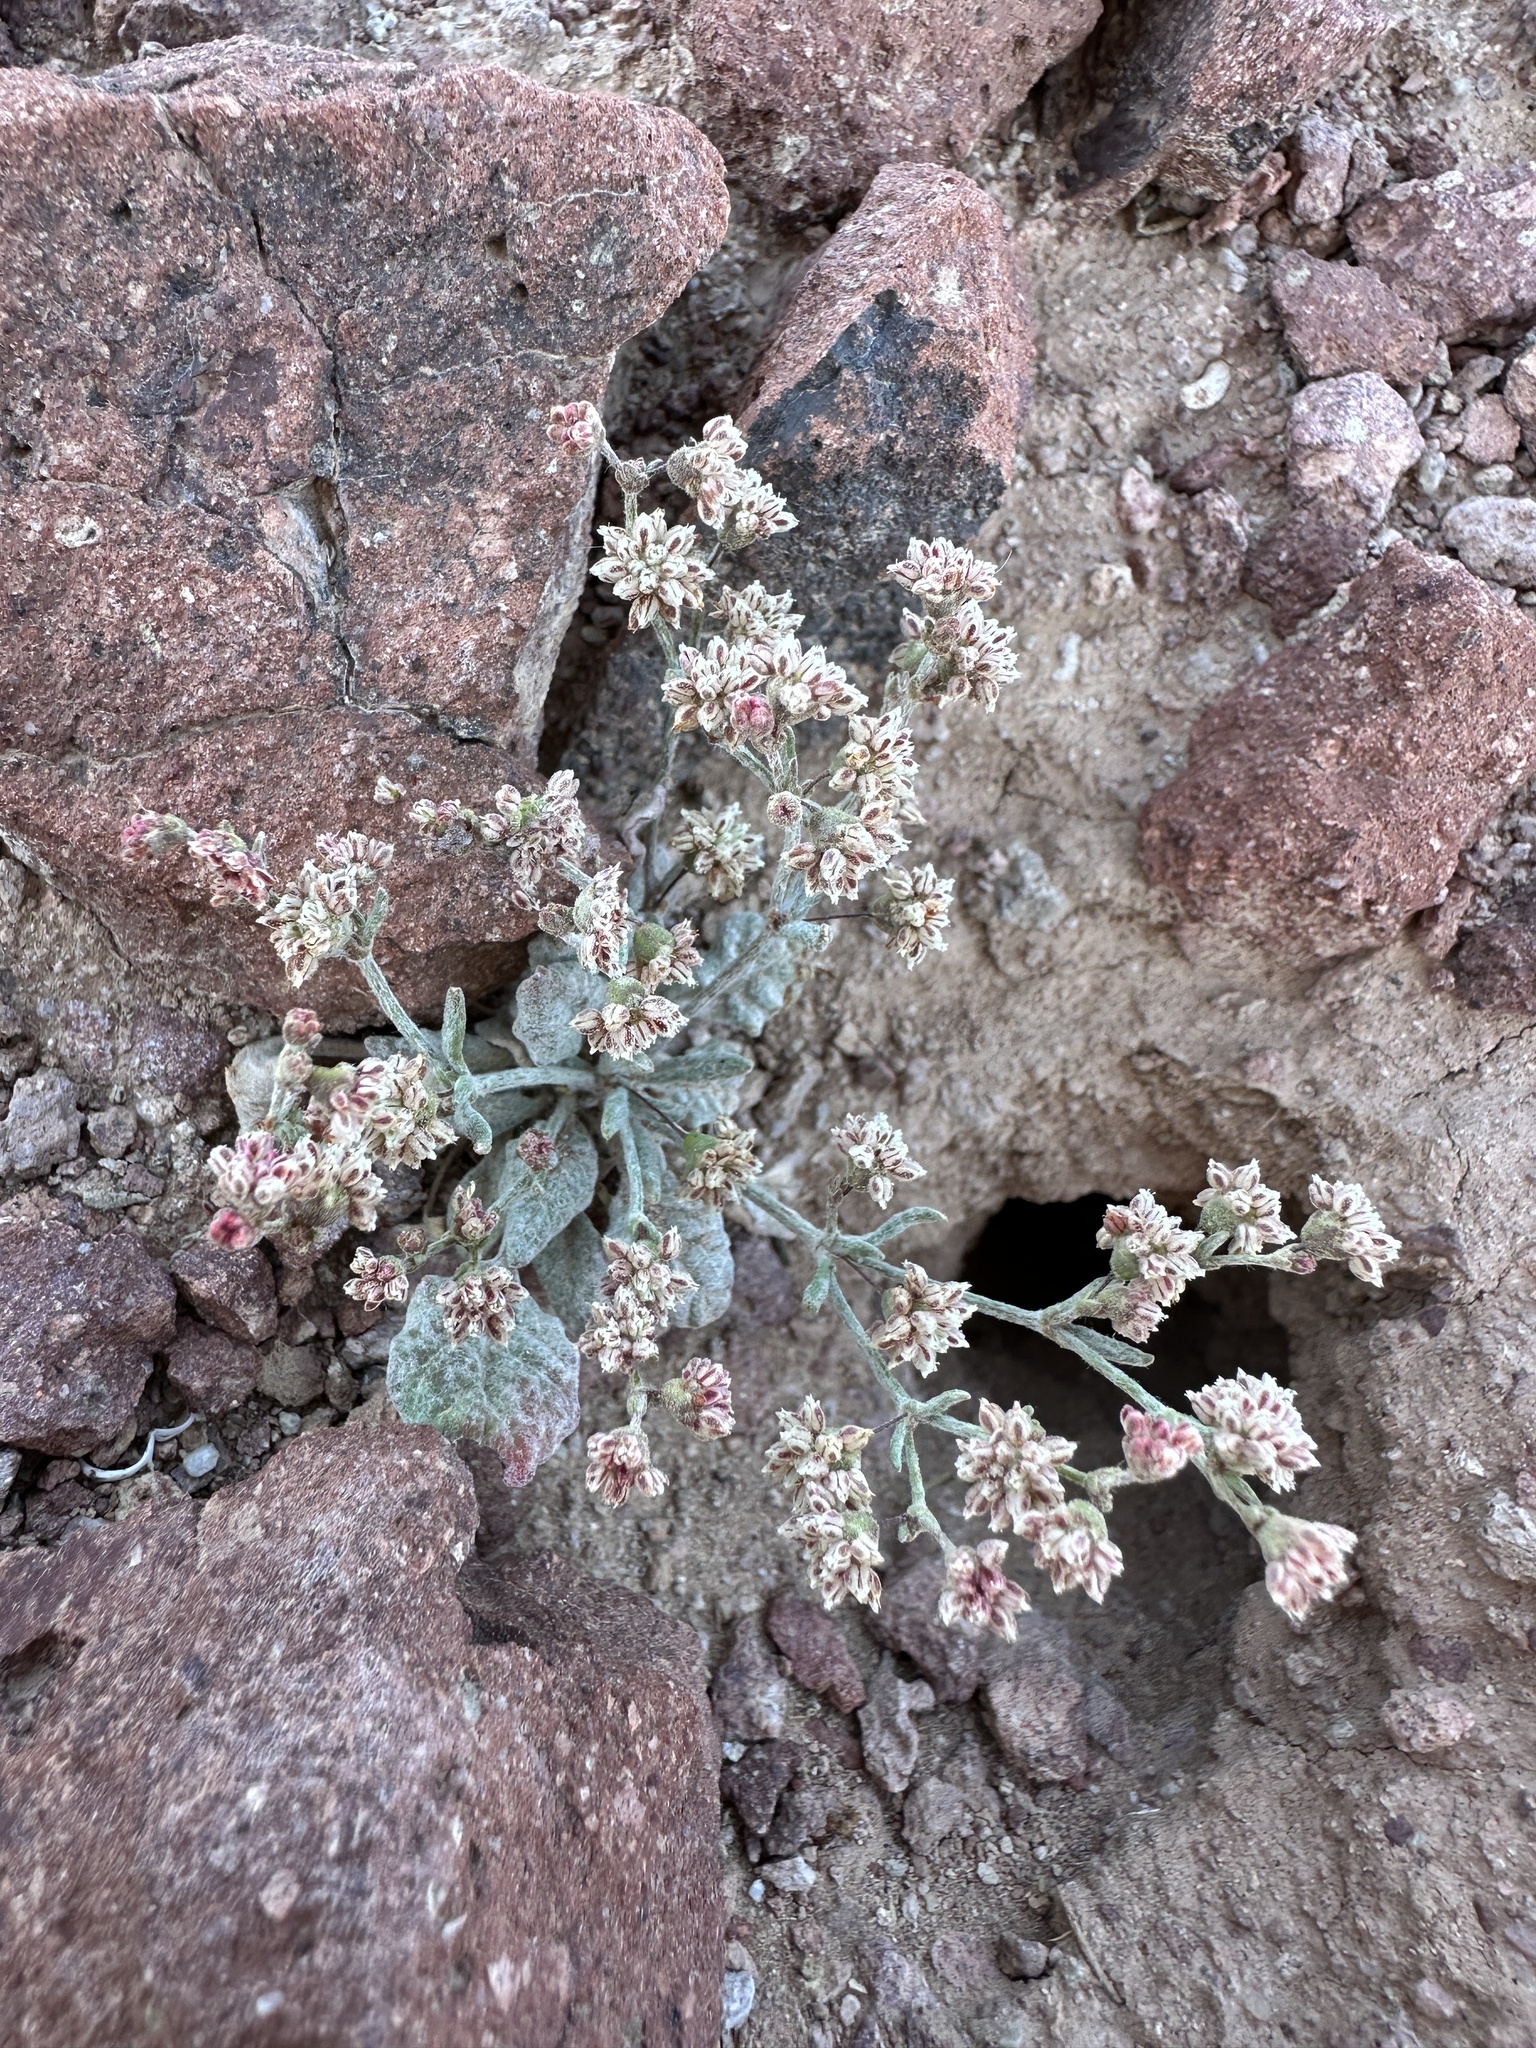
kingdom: Plantae
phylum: Tracheophyta
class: Magnoliopsida
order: Caryophyllales
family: Polygonaceae
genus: Eriogonum
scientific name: Eriogonum maculatum
